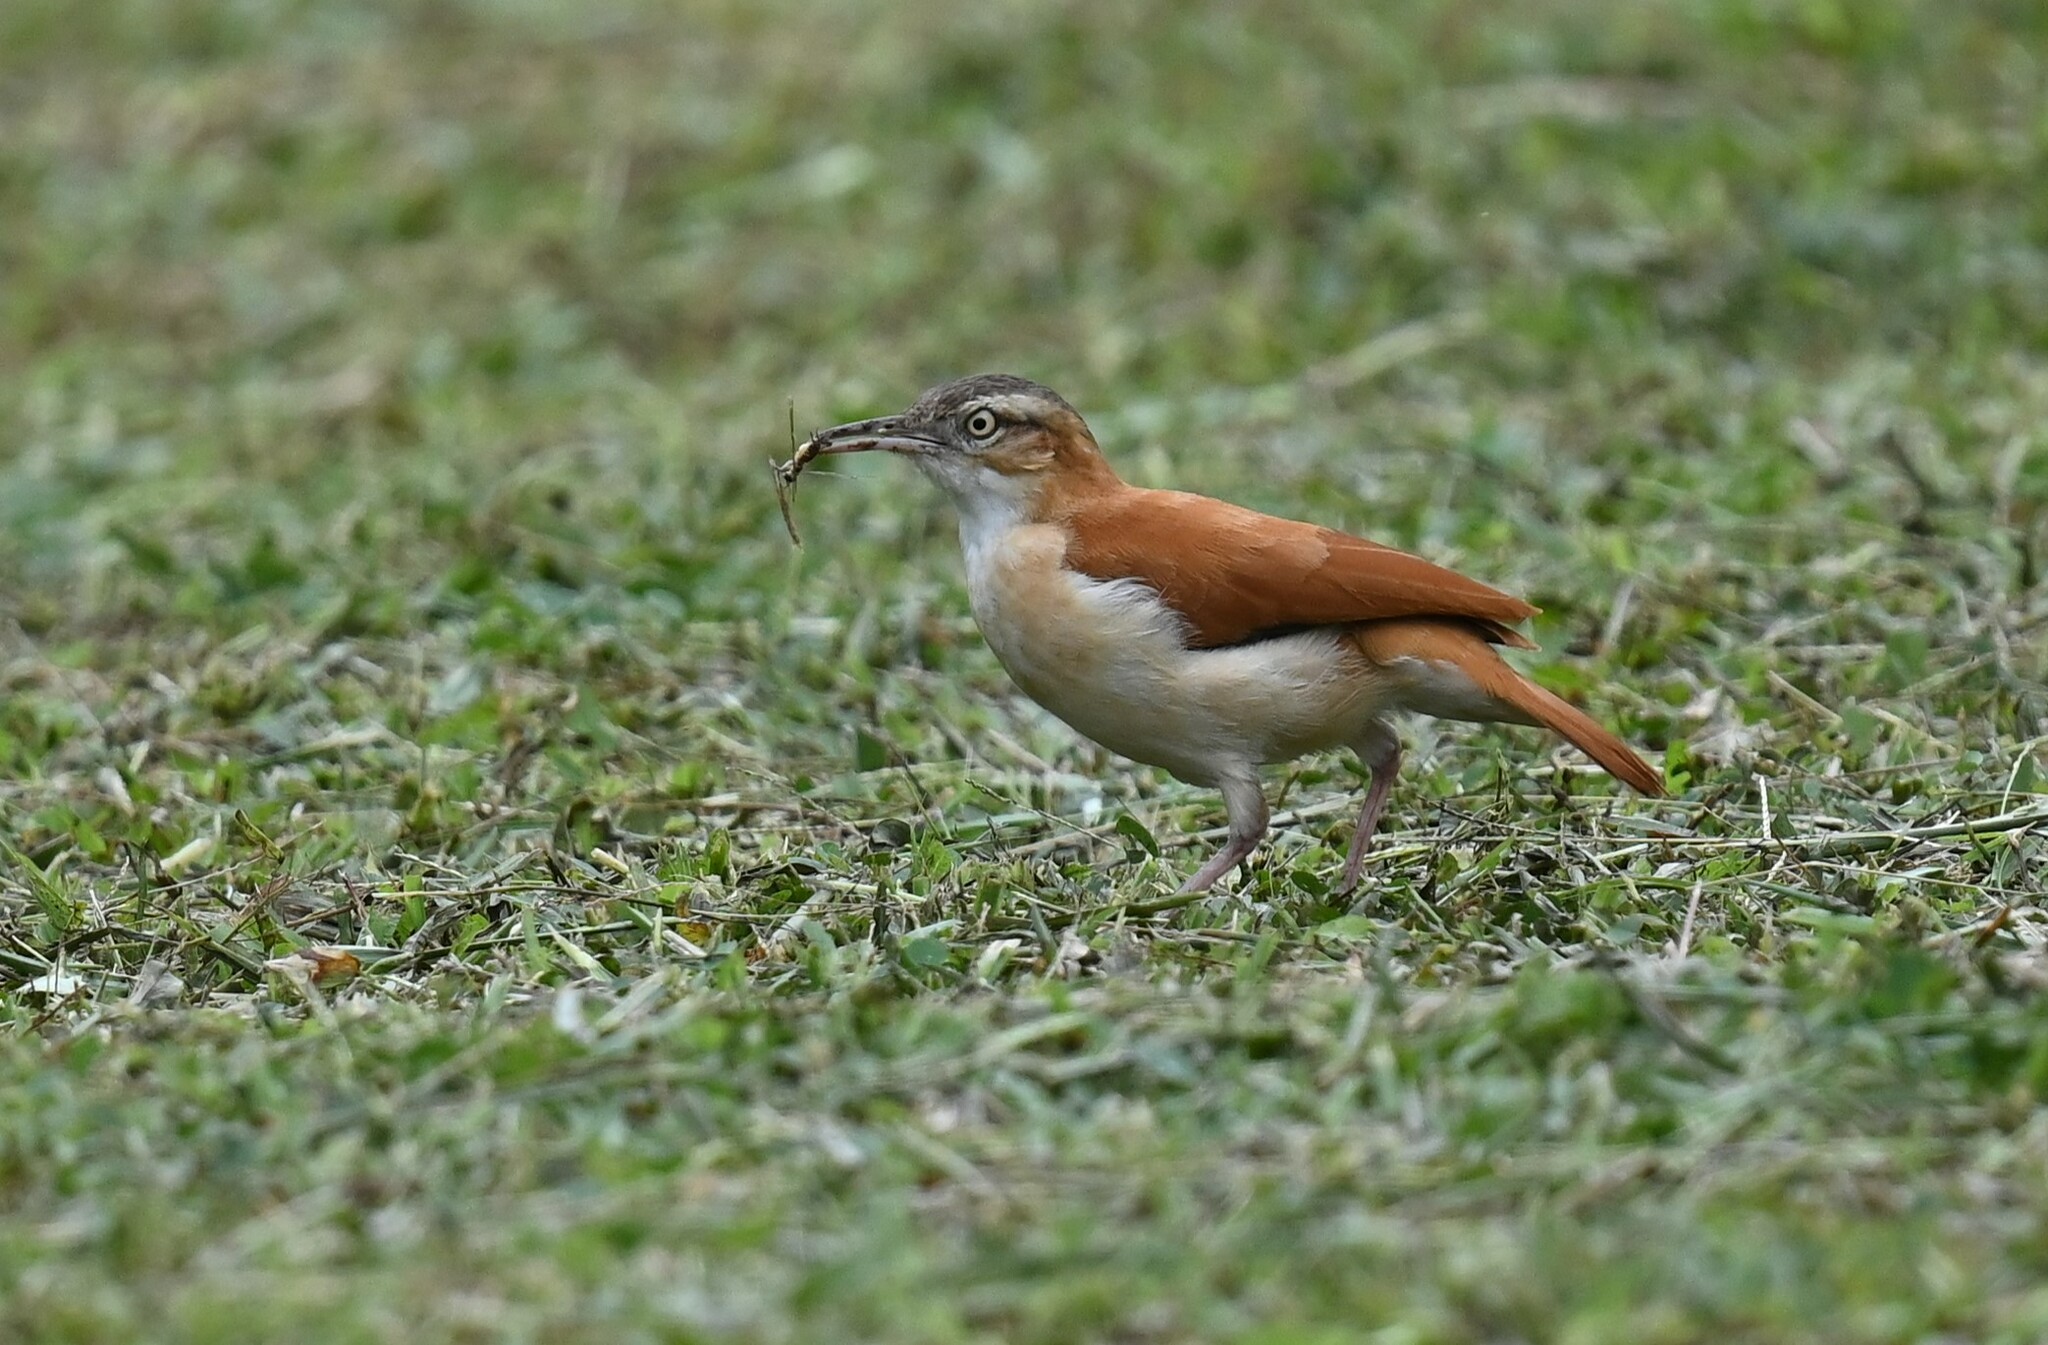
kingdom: Animalia
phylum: Chordata
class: Aves
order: Passeriformes
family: Furnariidae
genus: Furnarius
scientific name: Furnarius leucopus
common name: Pale-legged hornero
